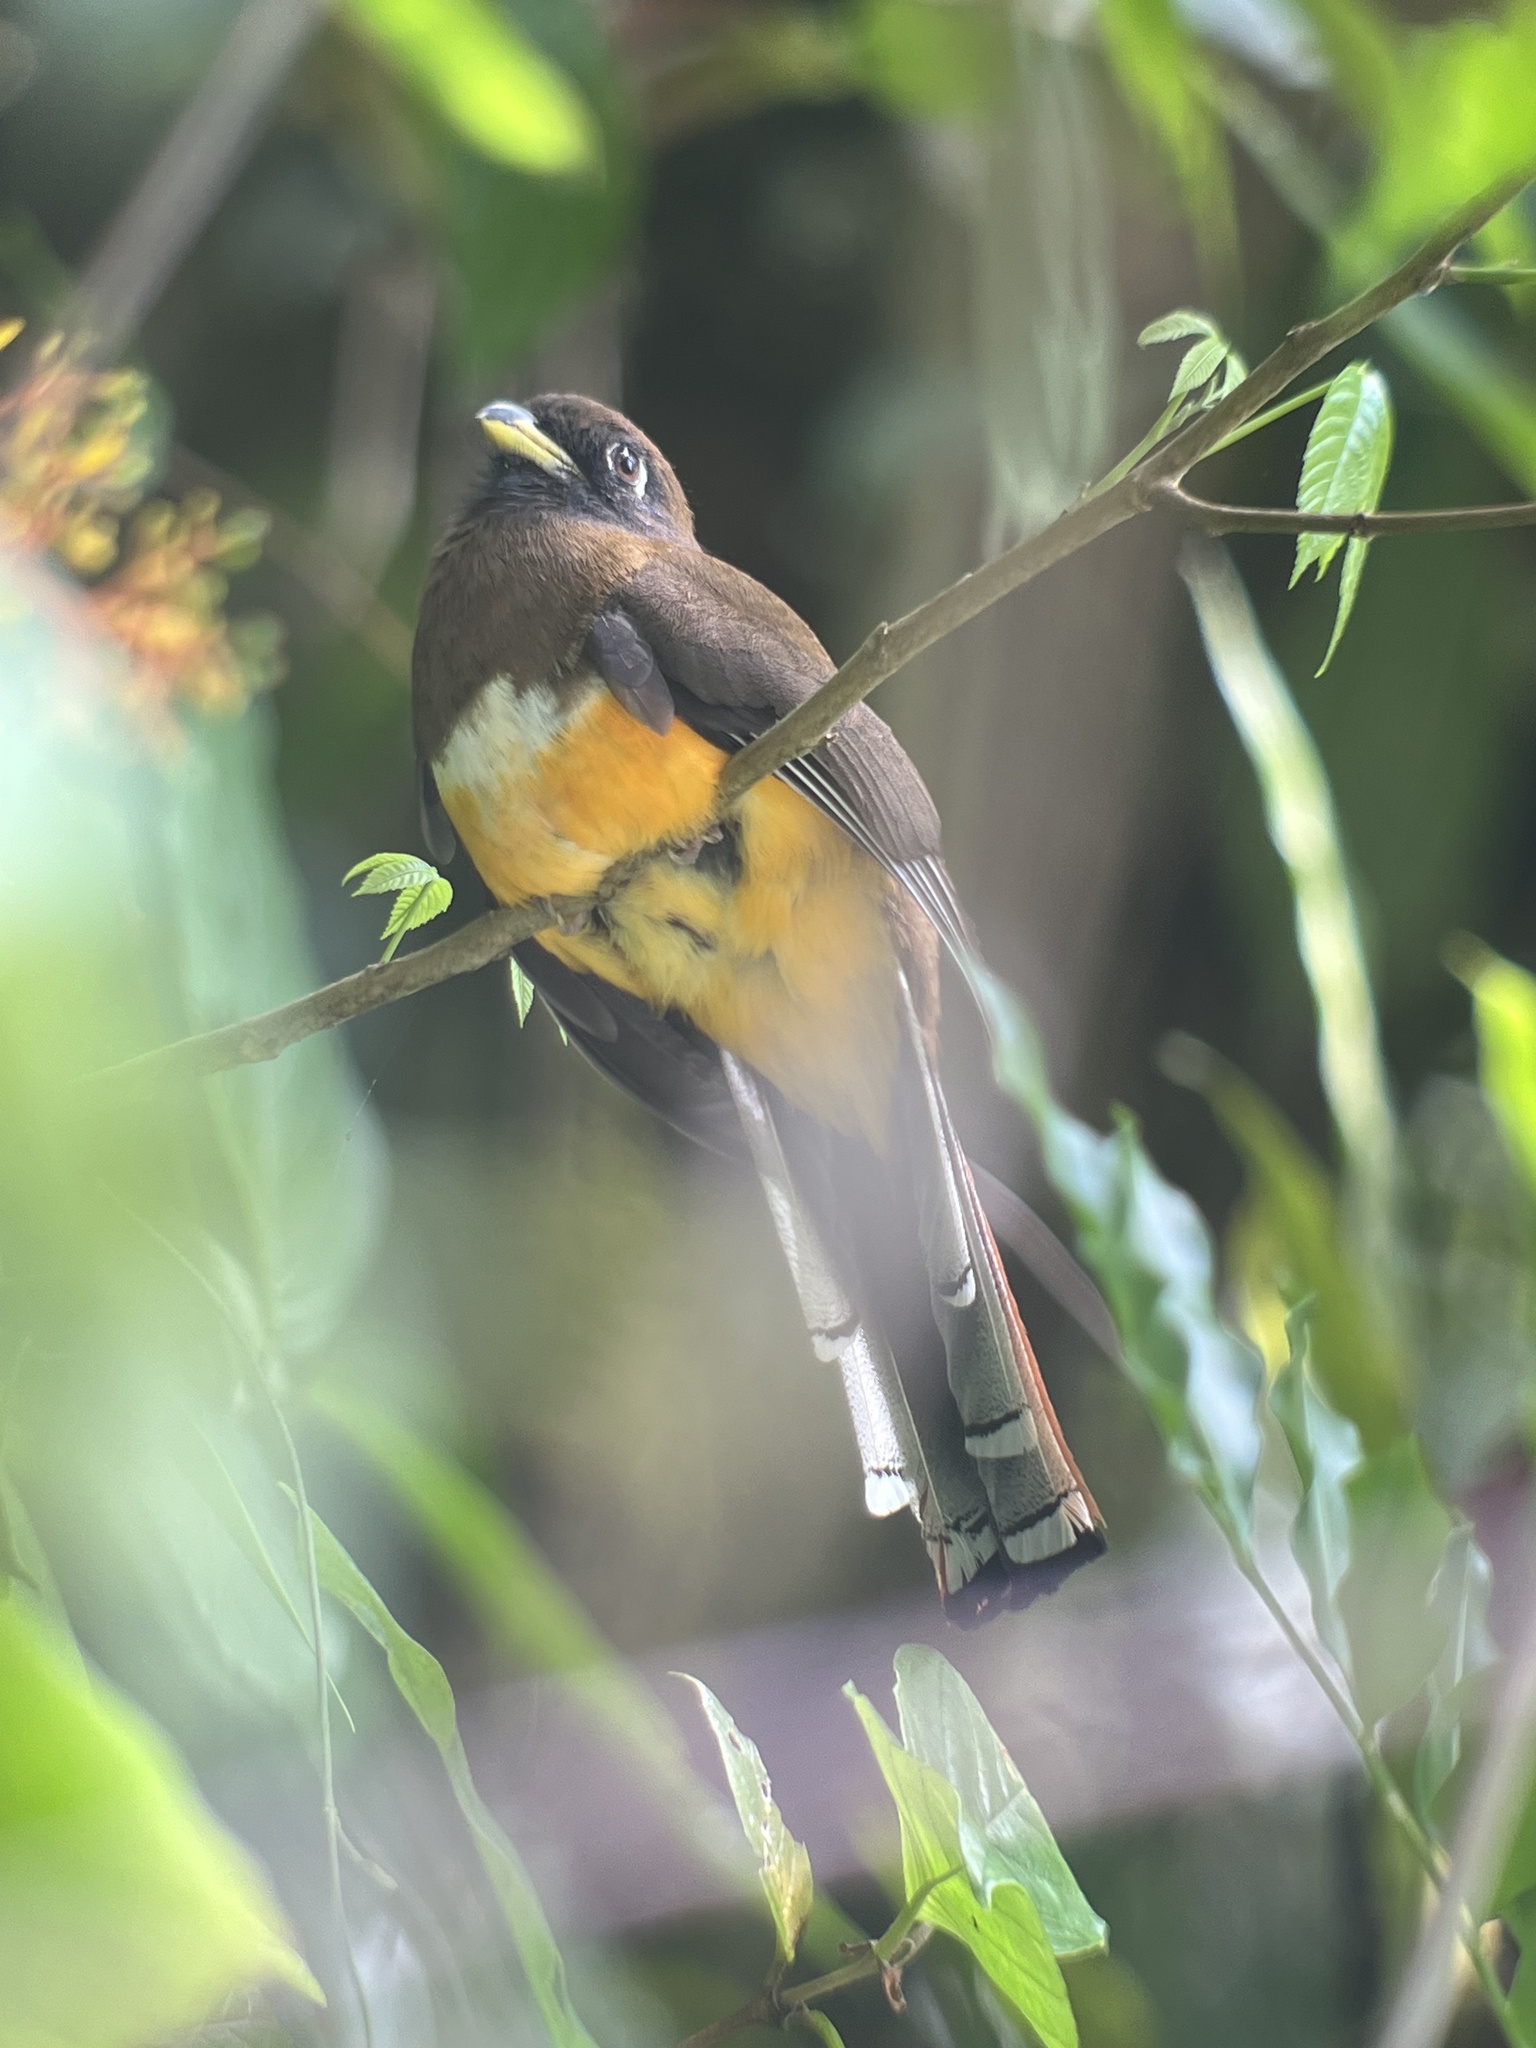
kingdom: Animalia
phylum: Chordata
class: Aves
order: Trogoniformes
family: Trogonidae
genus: Trogon
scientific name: Trogon collaris
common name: Collared trogon
